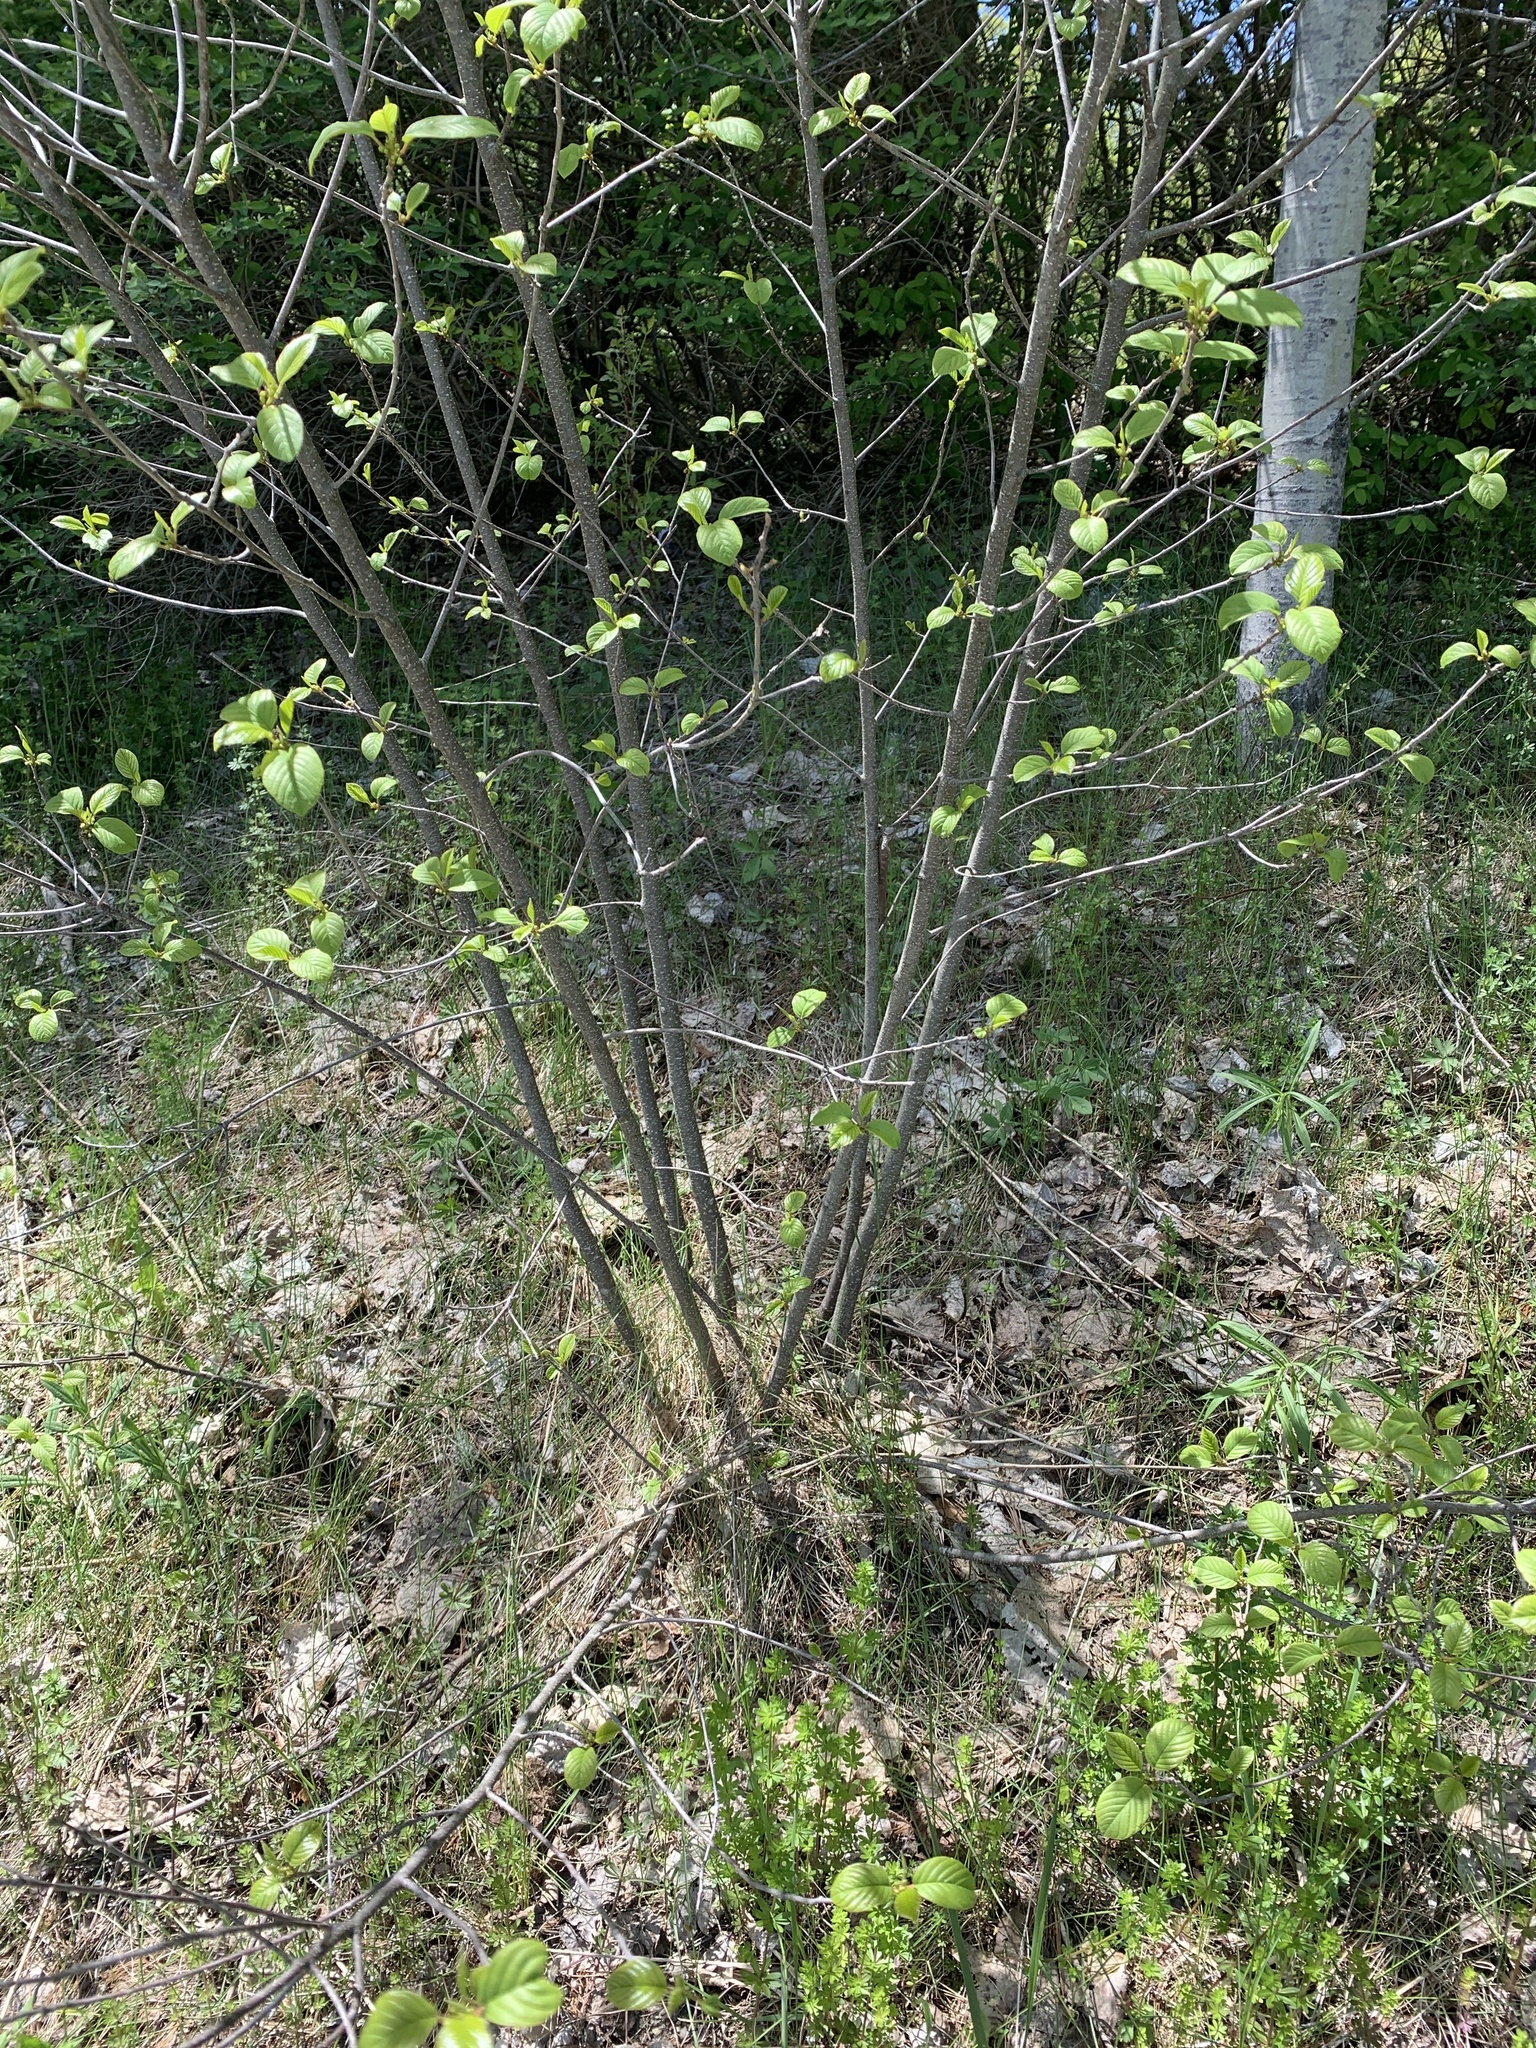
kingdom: Plantae
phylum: Tracheophyta
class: Magnoliopsida
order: Rosales
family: Rhamnaceae
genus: Frangula
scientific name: Frangula alnus
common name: Alder buckthorn
